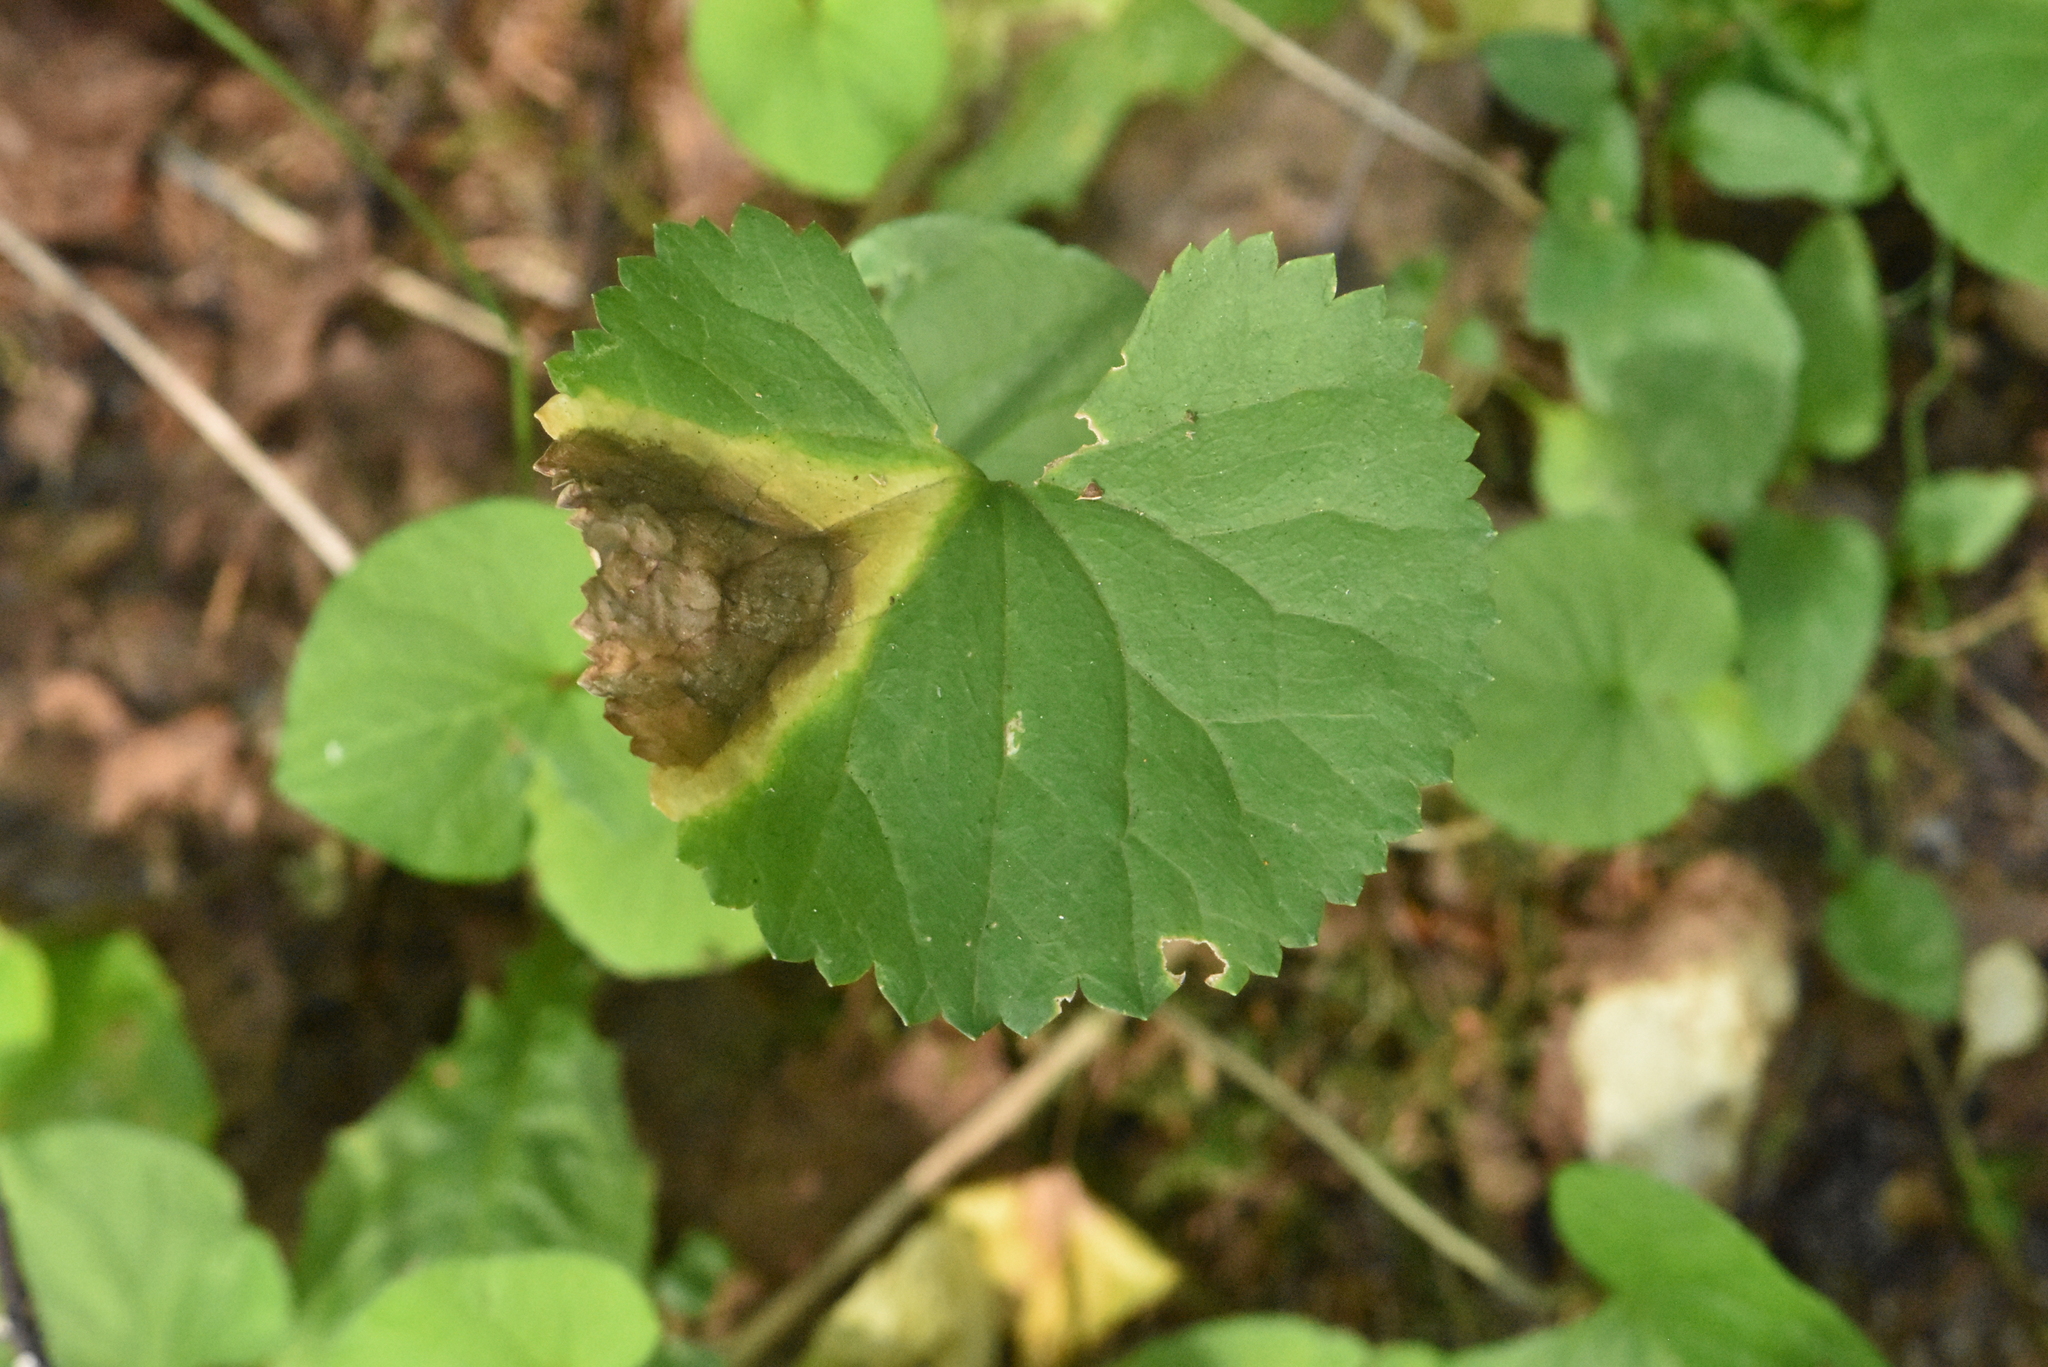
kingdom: Plantae
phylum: Tracheophyta
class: Magnoliopsida
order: Ranunculales
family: Ranunculaceae
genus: Ranunculus
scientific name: Ranunculus cassubicus
